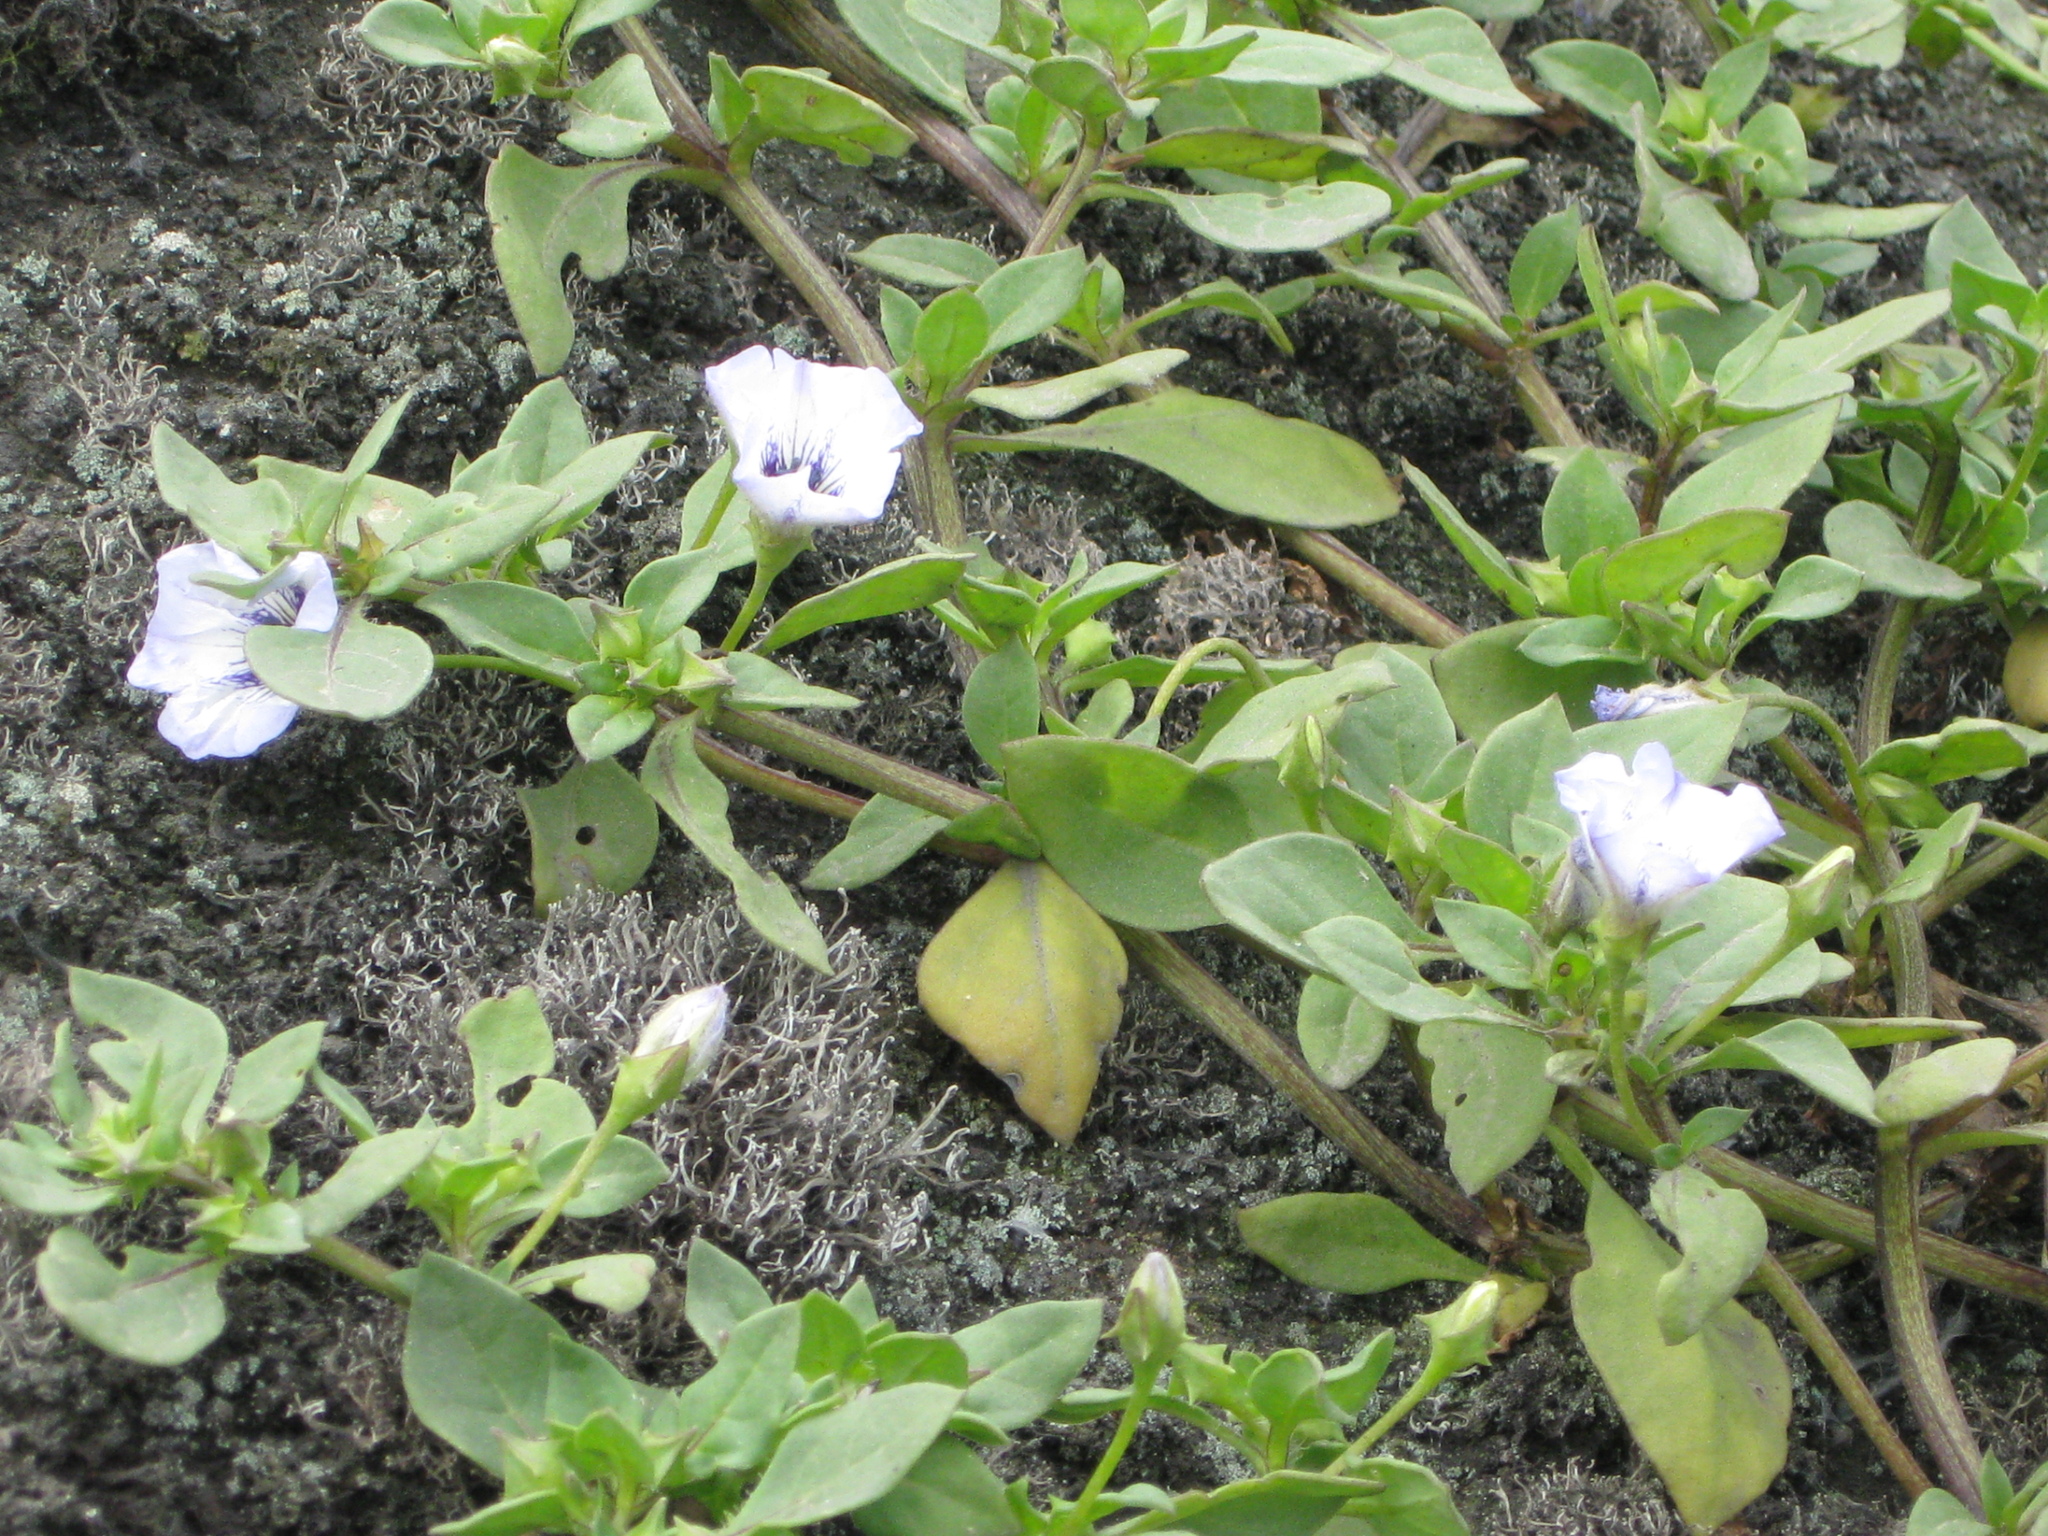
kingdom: Plantae
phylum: Tracheophyta
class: Magnoliopsida
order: Solanales
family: Solanaceae
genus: Nolana
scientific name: Nolana humifusa
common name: Trailing chilean-bellflower
